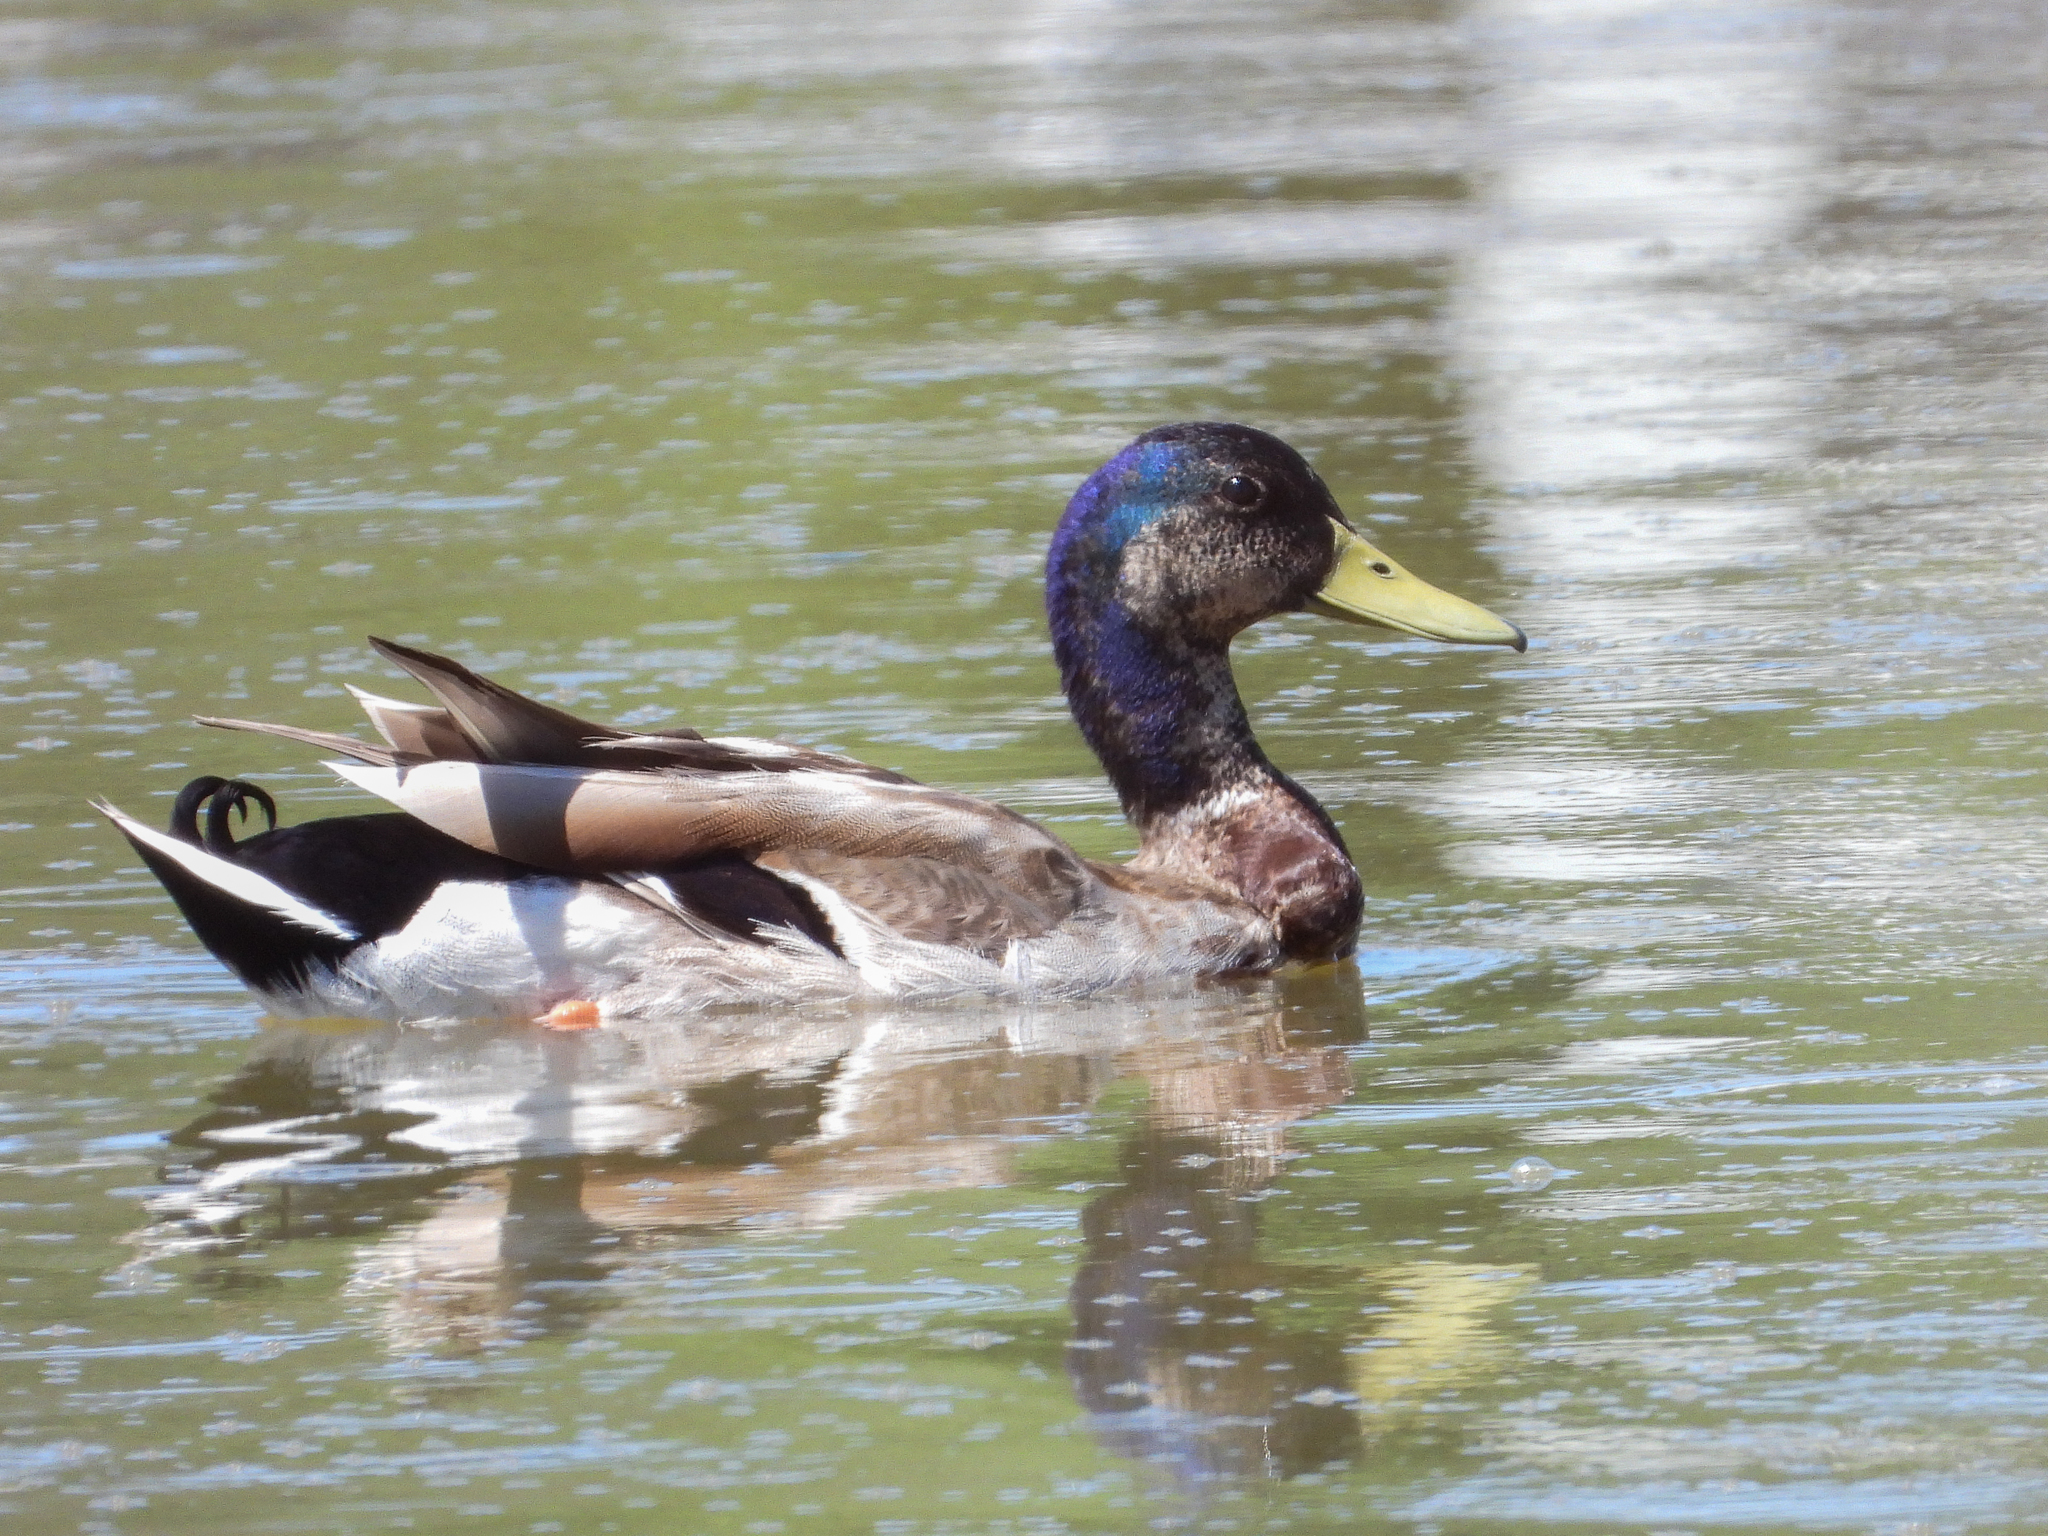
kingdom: Animalia
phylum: Chordata
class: Aves
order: Anseriformes
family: Anatidae
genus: Anas
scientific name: Anas platyrhynchos
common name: Mallard
